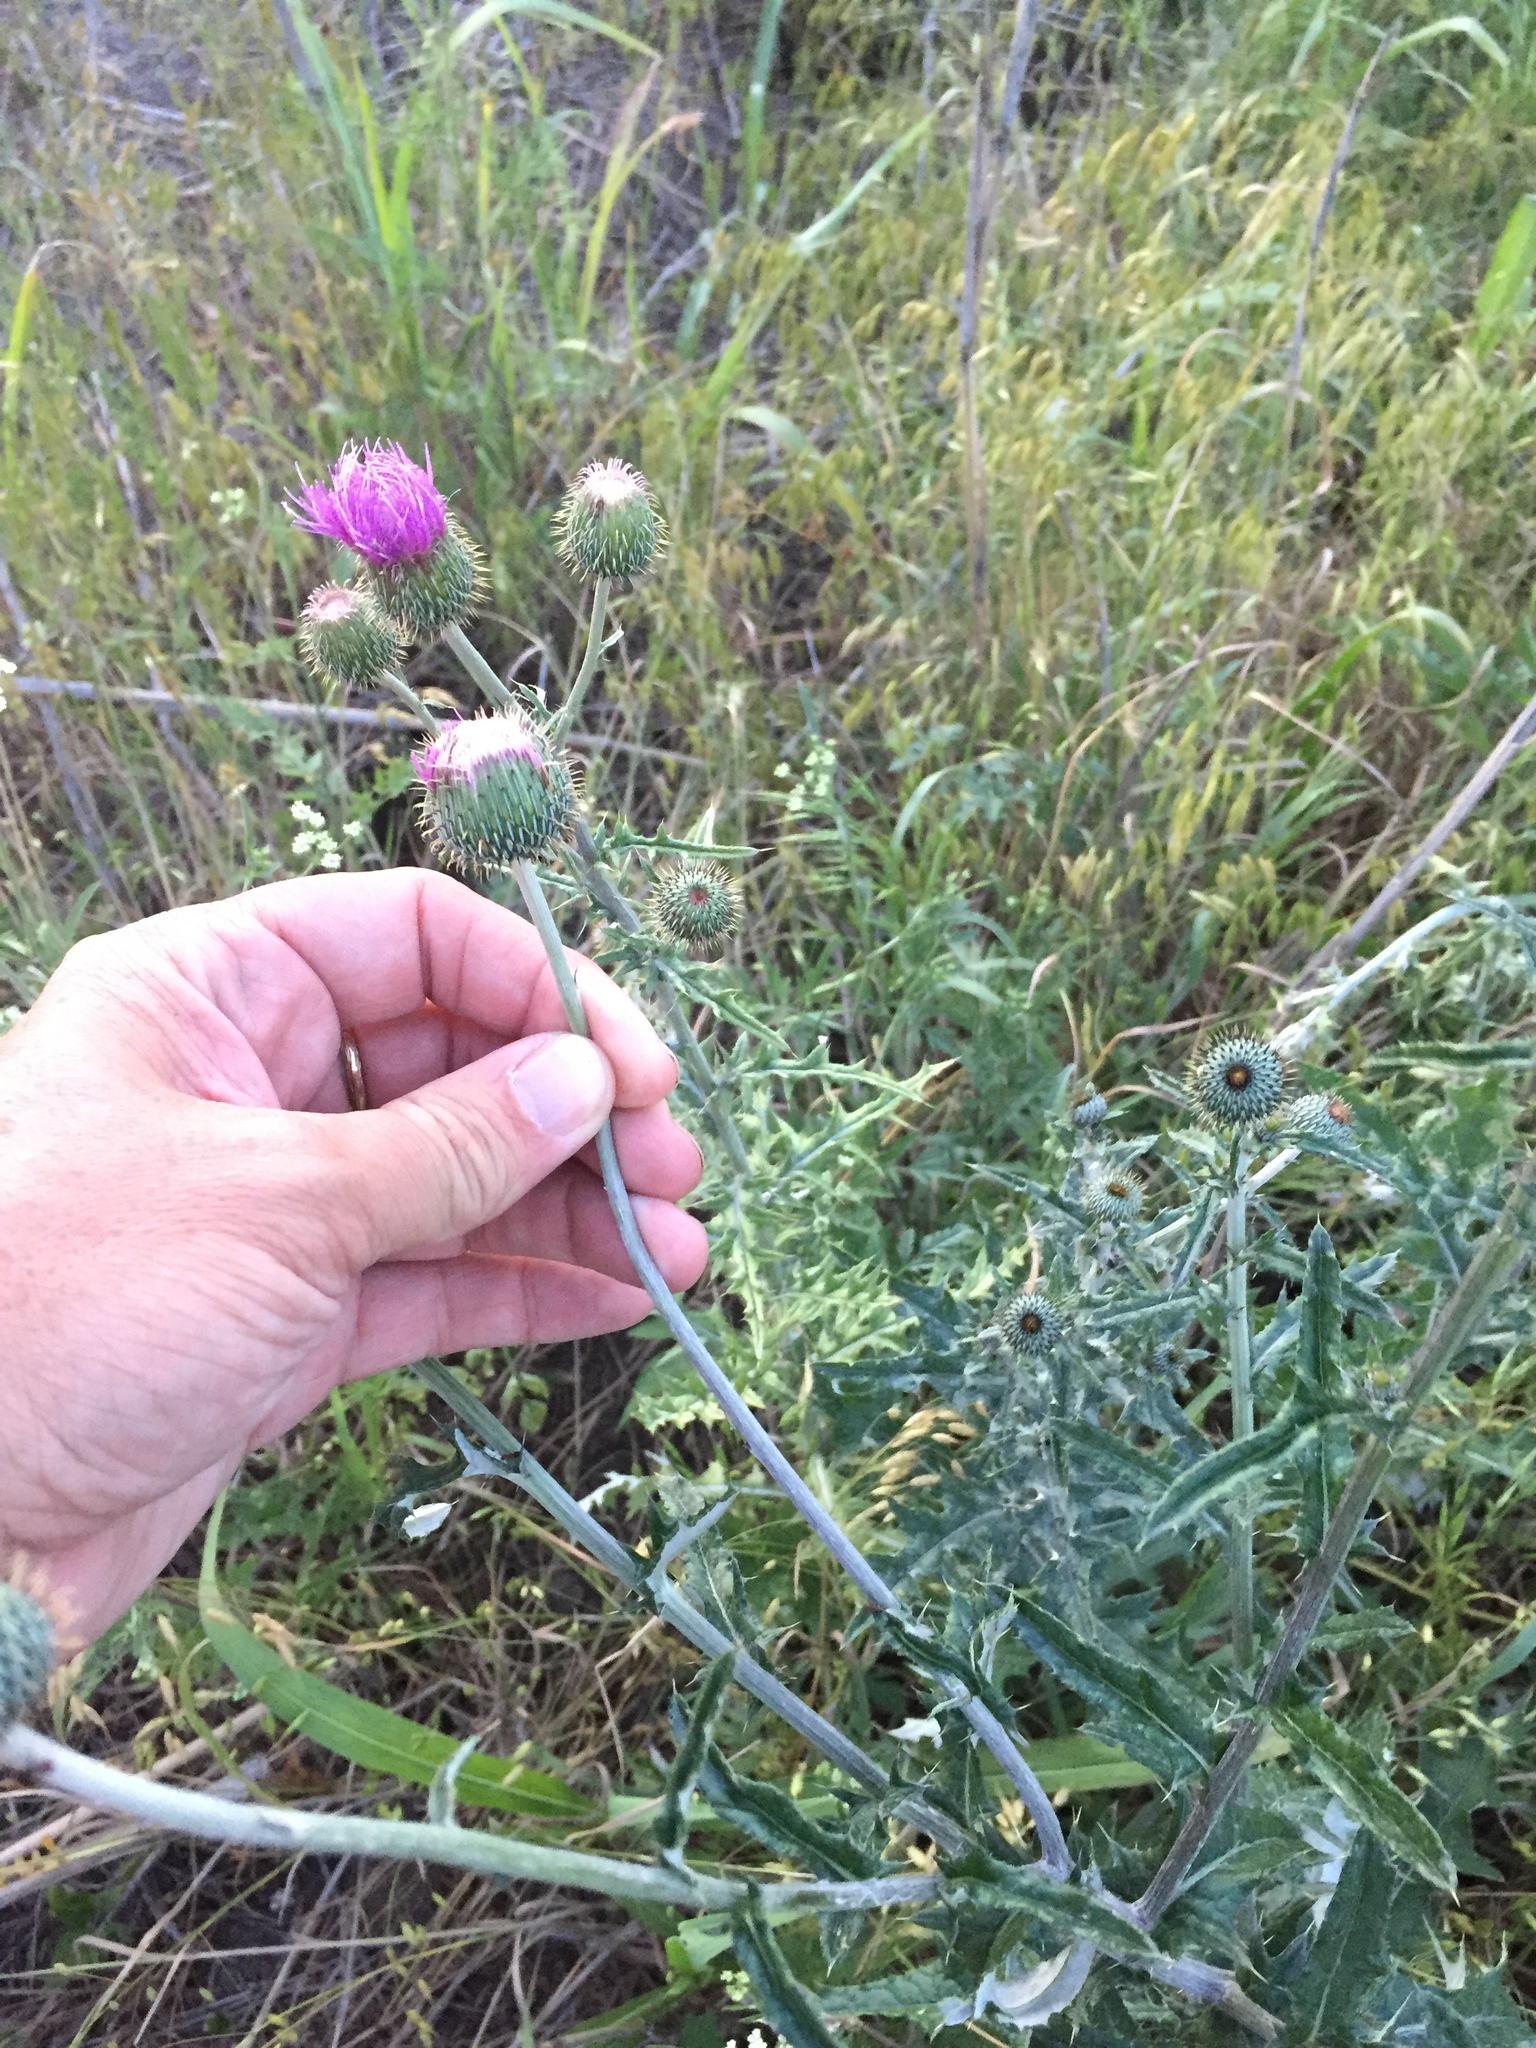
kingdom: Plantae
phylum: Tracheophyta
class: Magnoliopsida
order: Asterales
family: Asteraceae
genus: Cirsium
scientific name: Cirsium texanum
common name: Texas purple thistle
